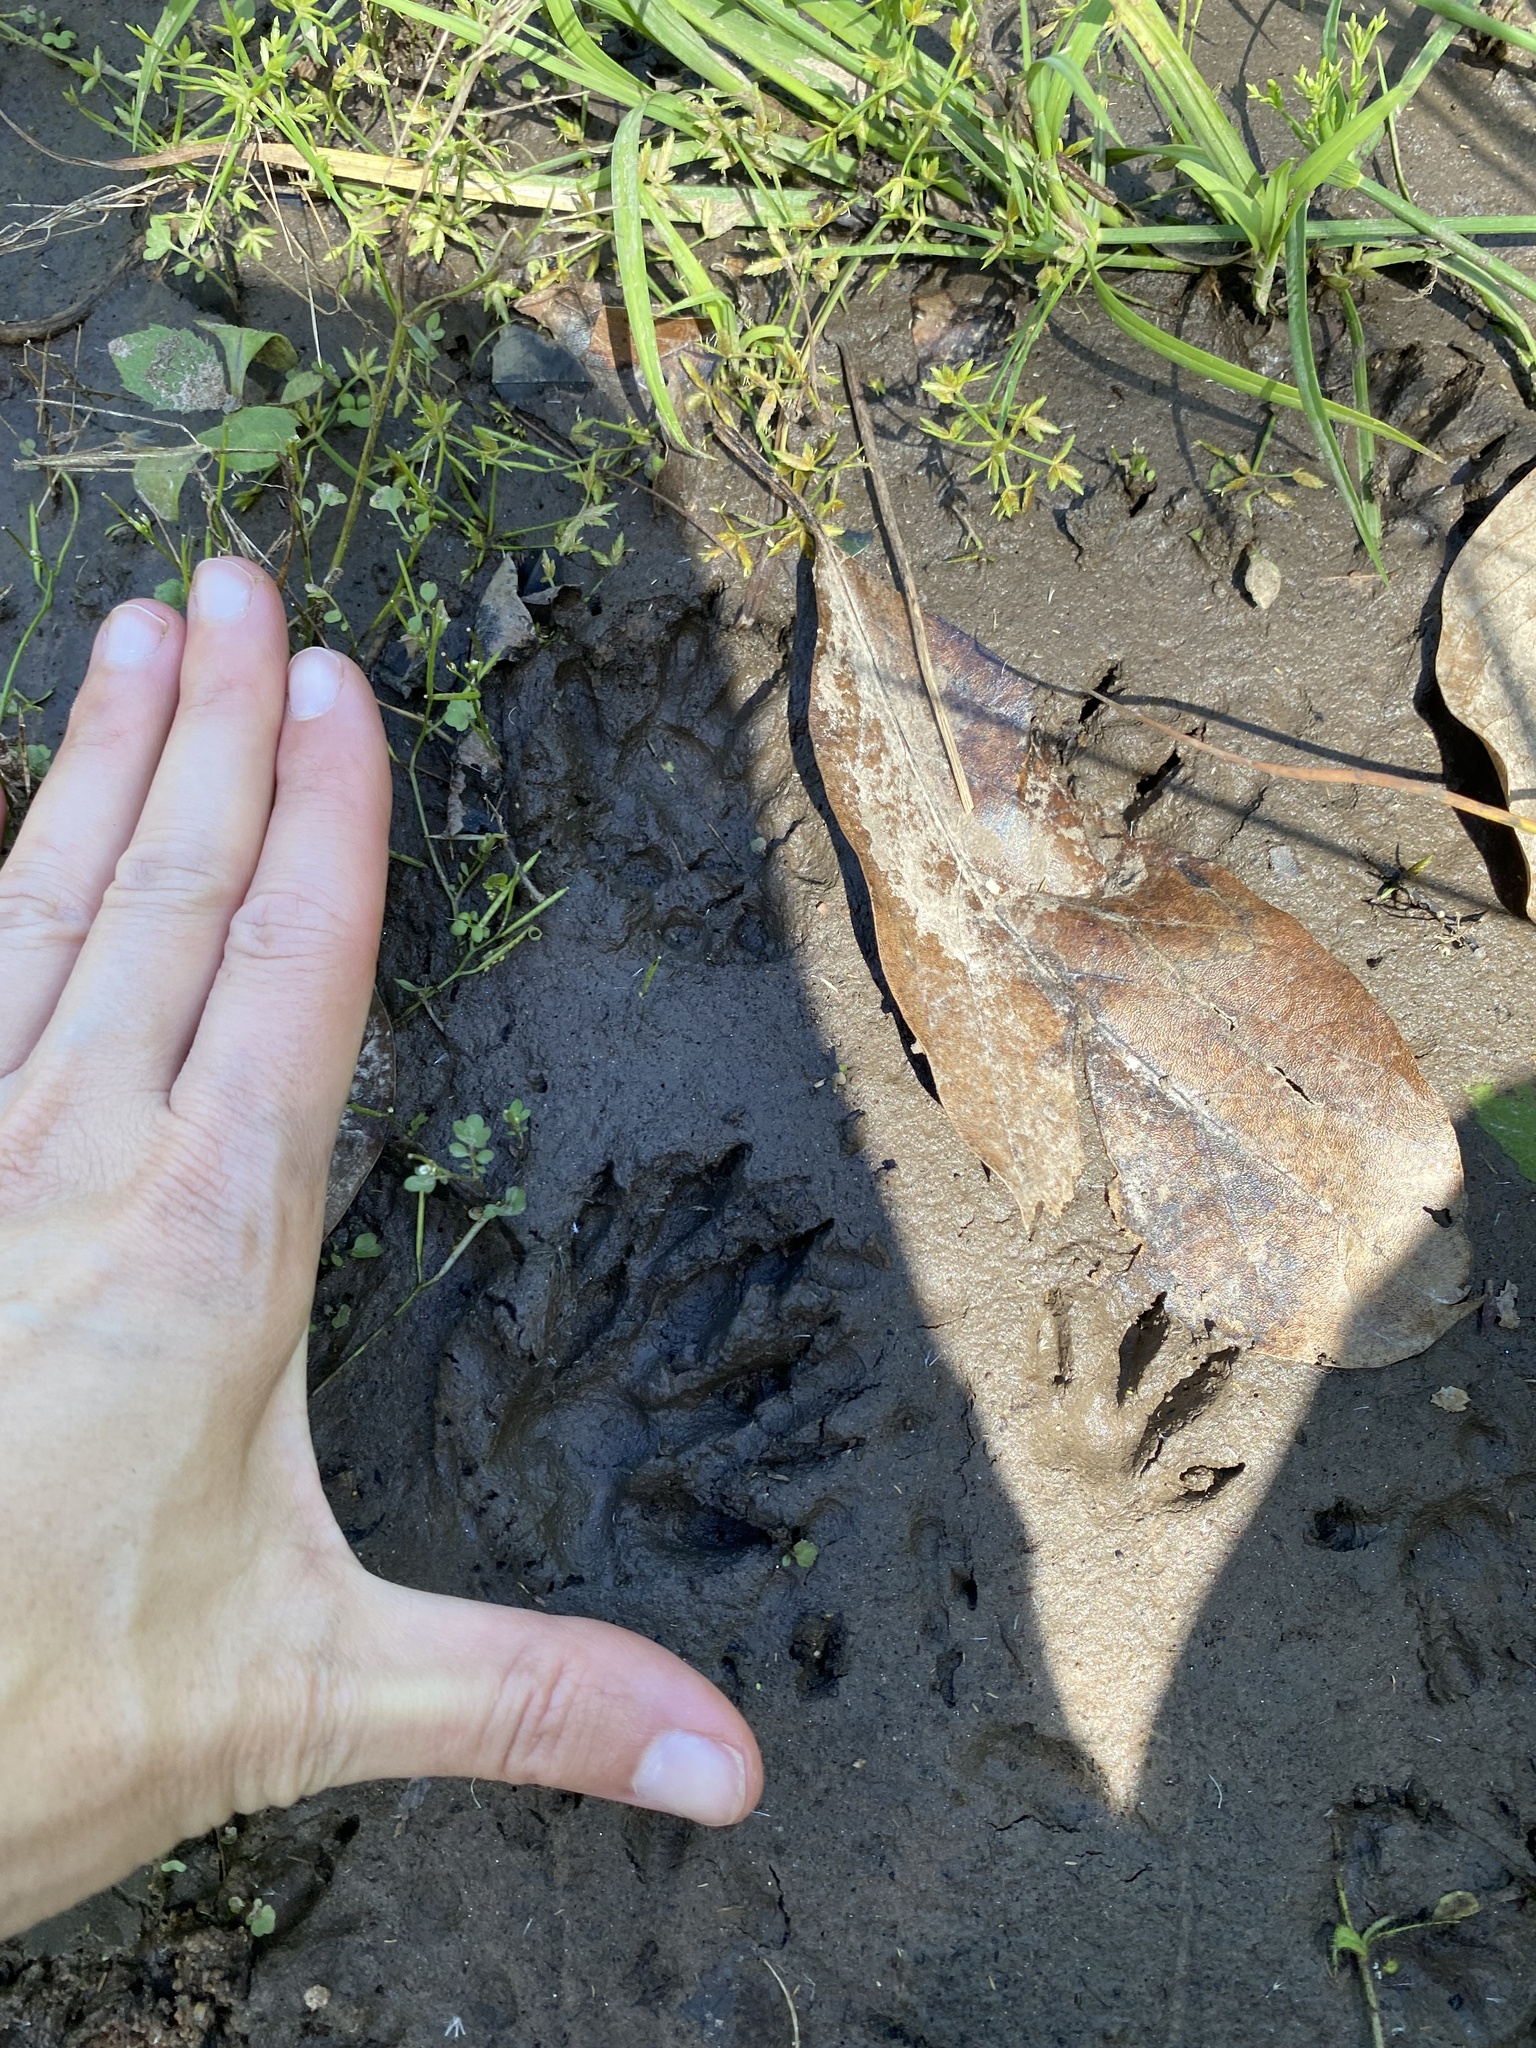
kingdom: Animalia
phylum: Chordata
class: Mammalia
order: Carnivora
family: Herpestidae
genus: Atilax
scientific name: Atilax paludinosus
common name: Marsh mongoose
